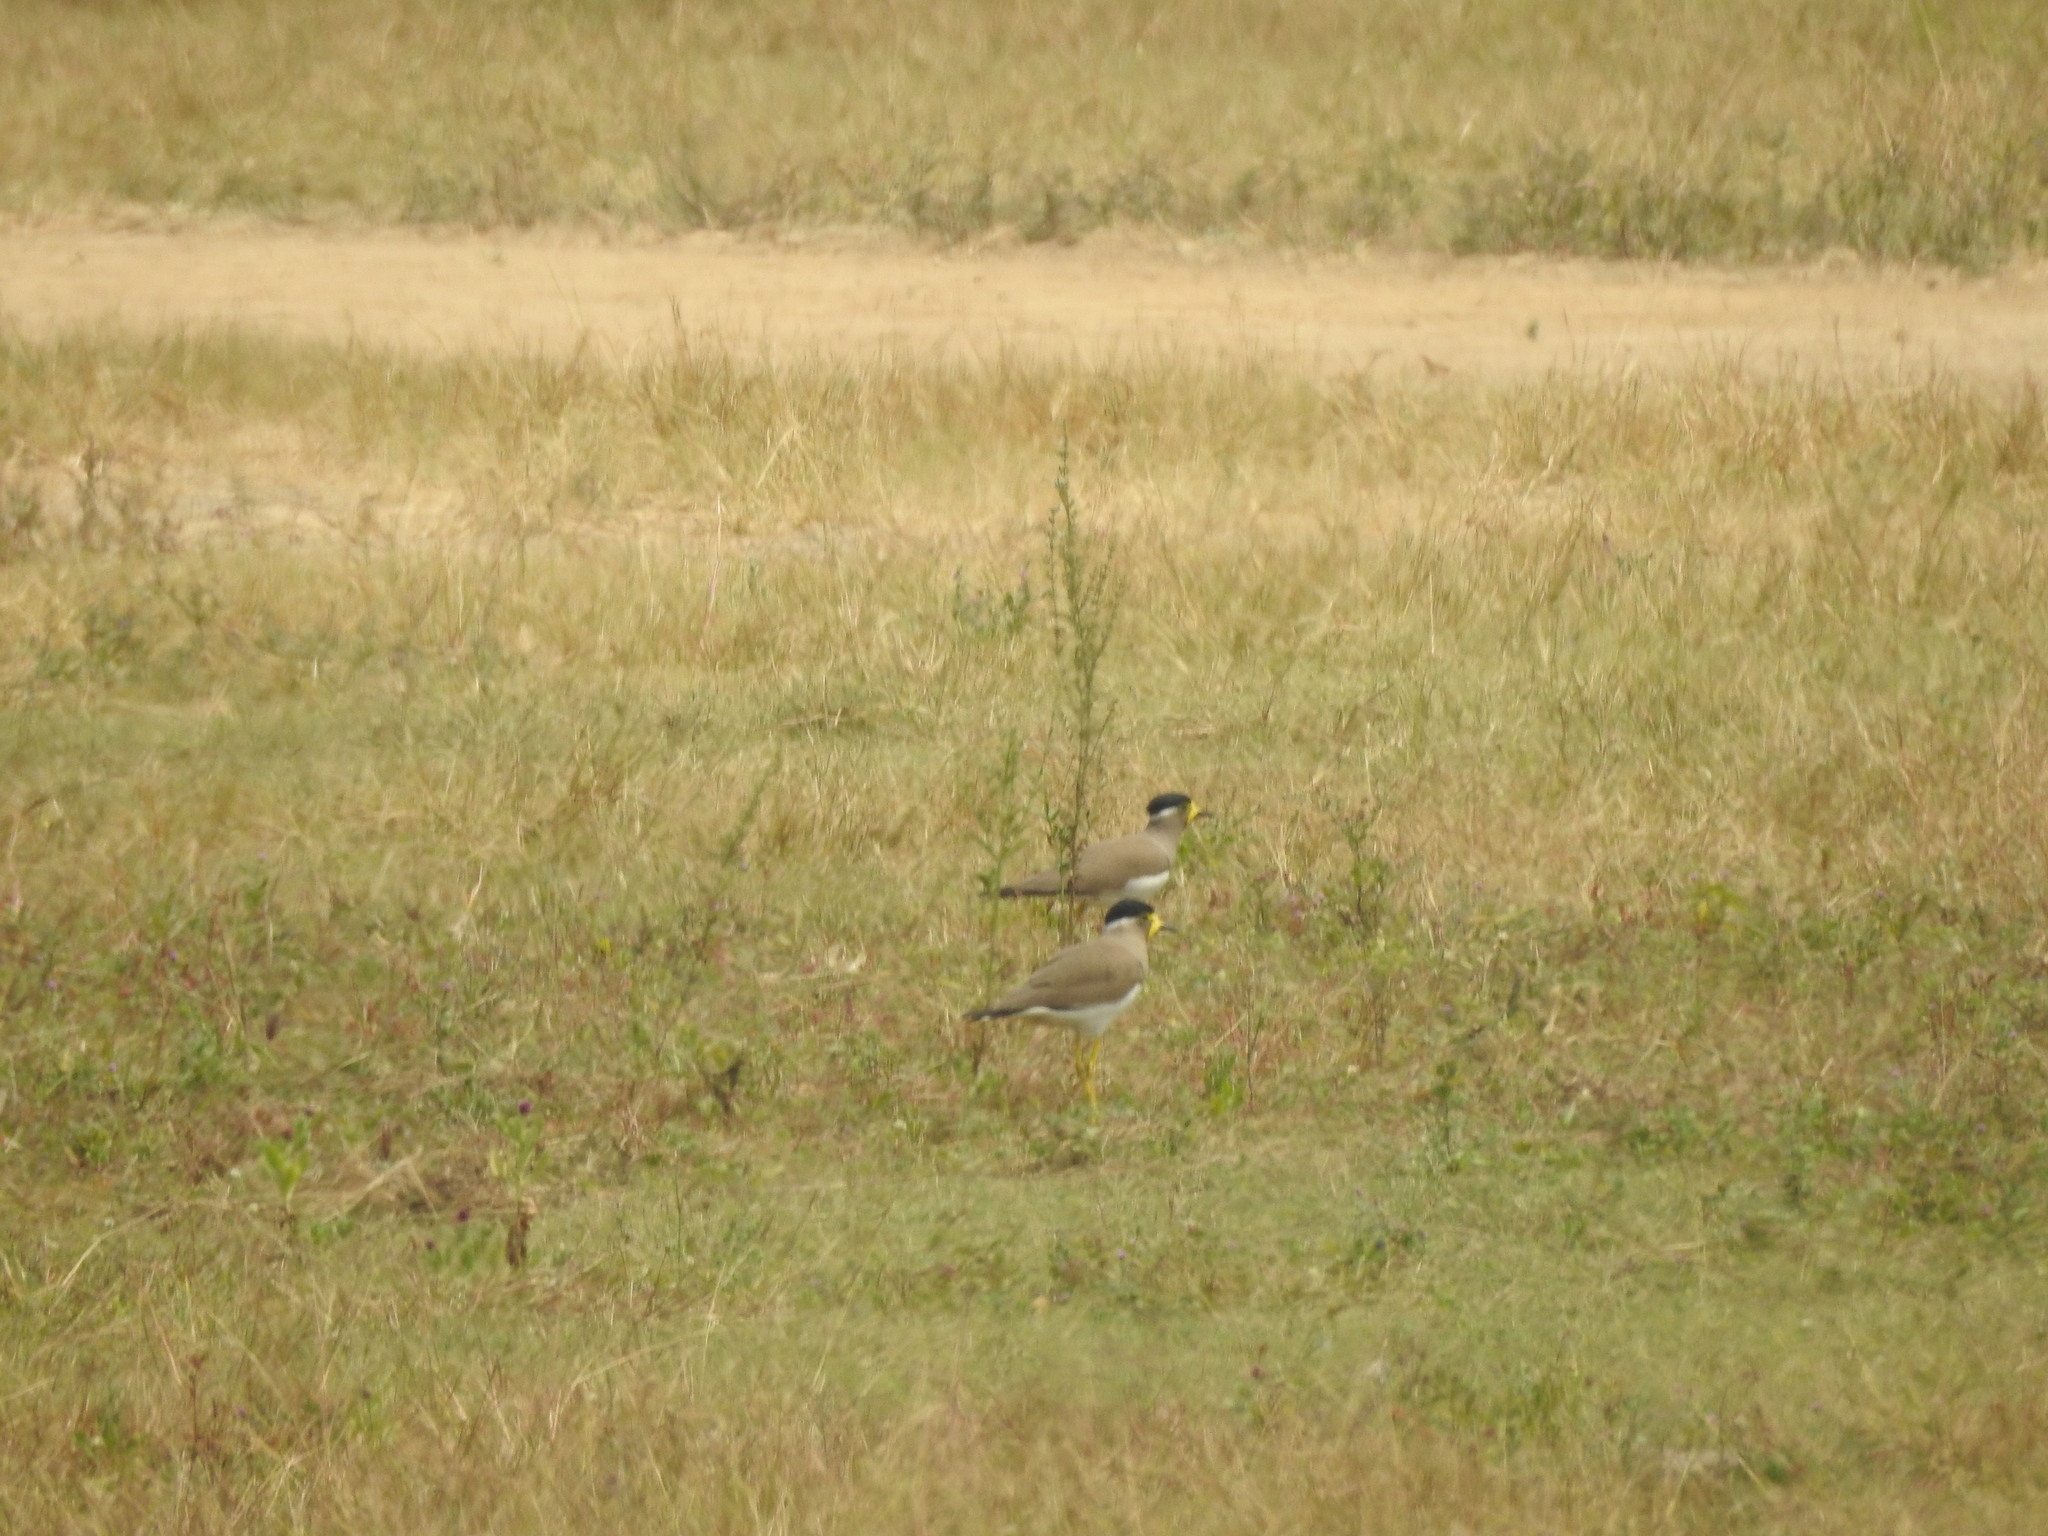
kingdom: Animalia
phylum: Chordata
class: Aves
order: Charadriiformes
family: Charadriidae
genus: Vanellus
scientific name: Vanellus malabaricus
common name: Yellow-wattled lapwing
